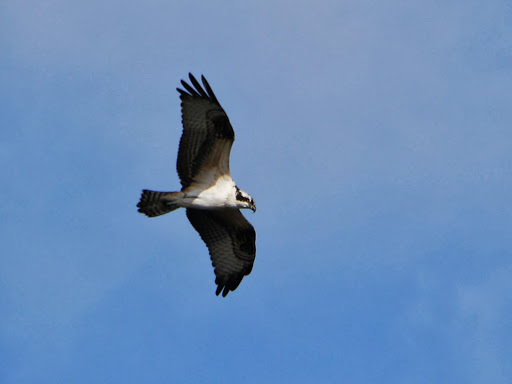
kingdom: Animalia
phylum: Chordata
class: Aves
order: Accipitriformes
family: Pandionidae
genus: Pandion
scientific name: Pandion haliaetus
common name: Osprey
